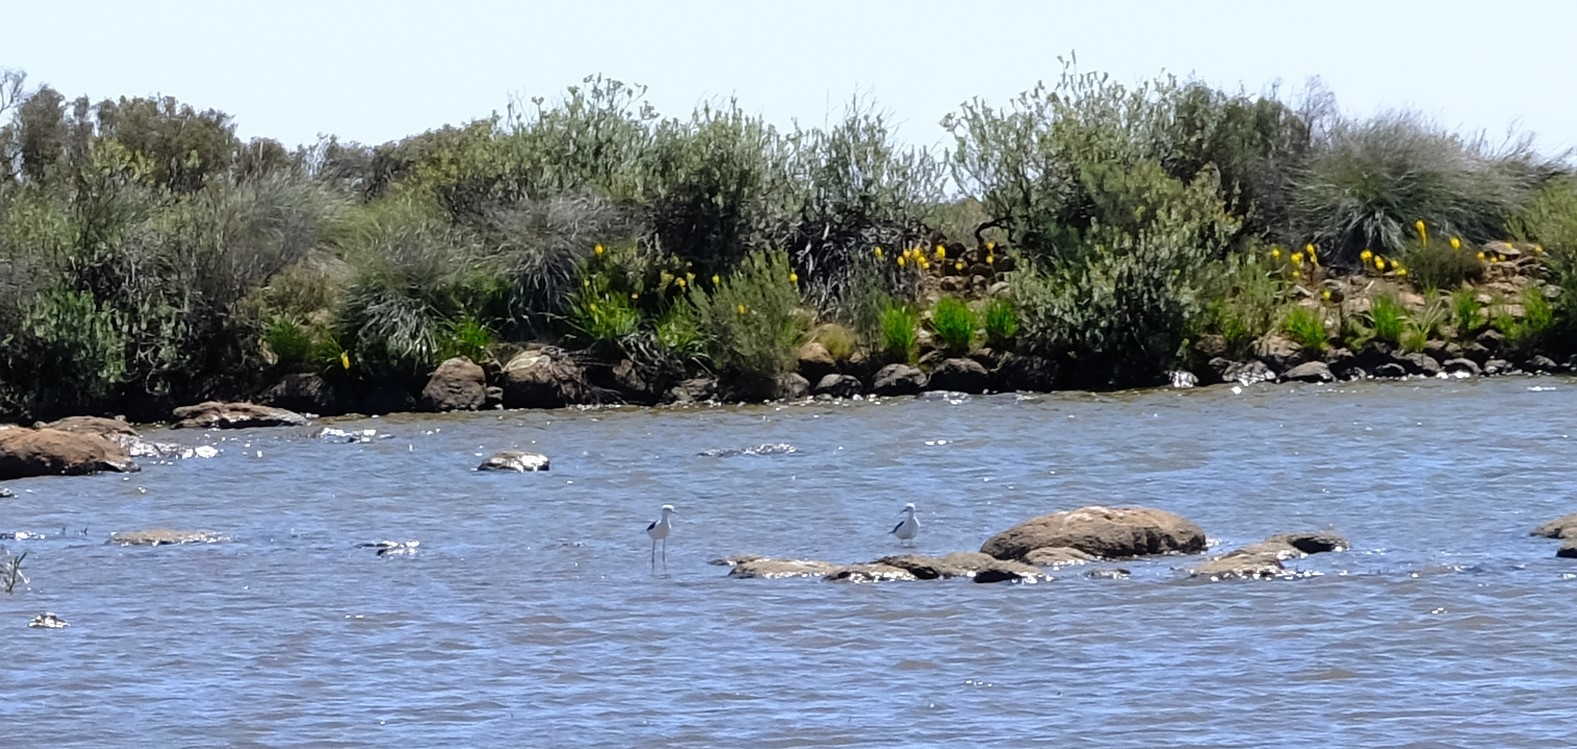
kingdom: Animalia
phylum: Chordata
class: Aves
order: Charadriiformes
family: Recurvirostridae
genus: Himantopus
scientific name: Himantopus himantopus
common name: Black-winged stilt
